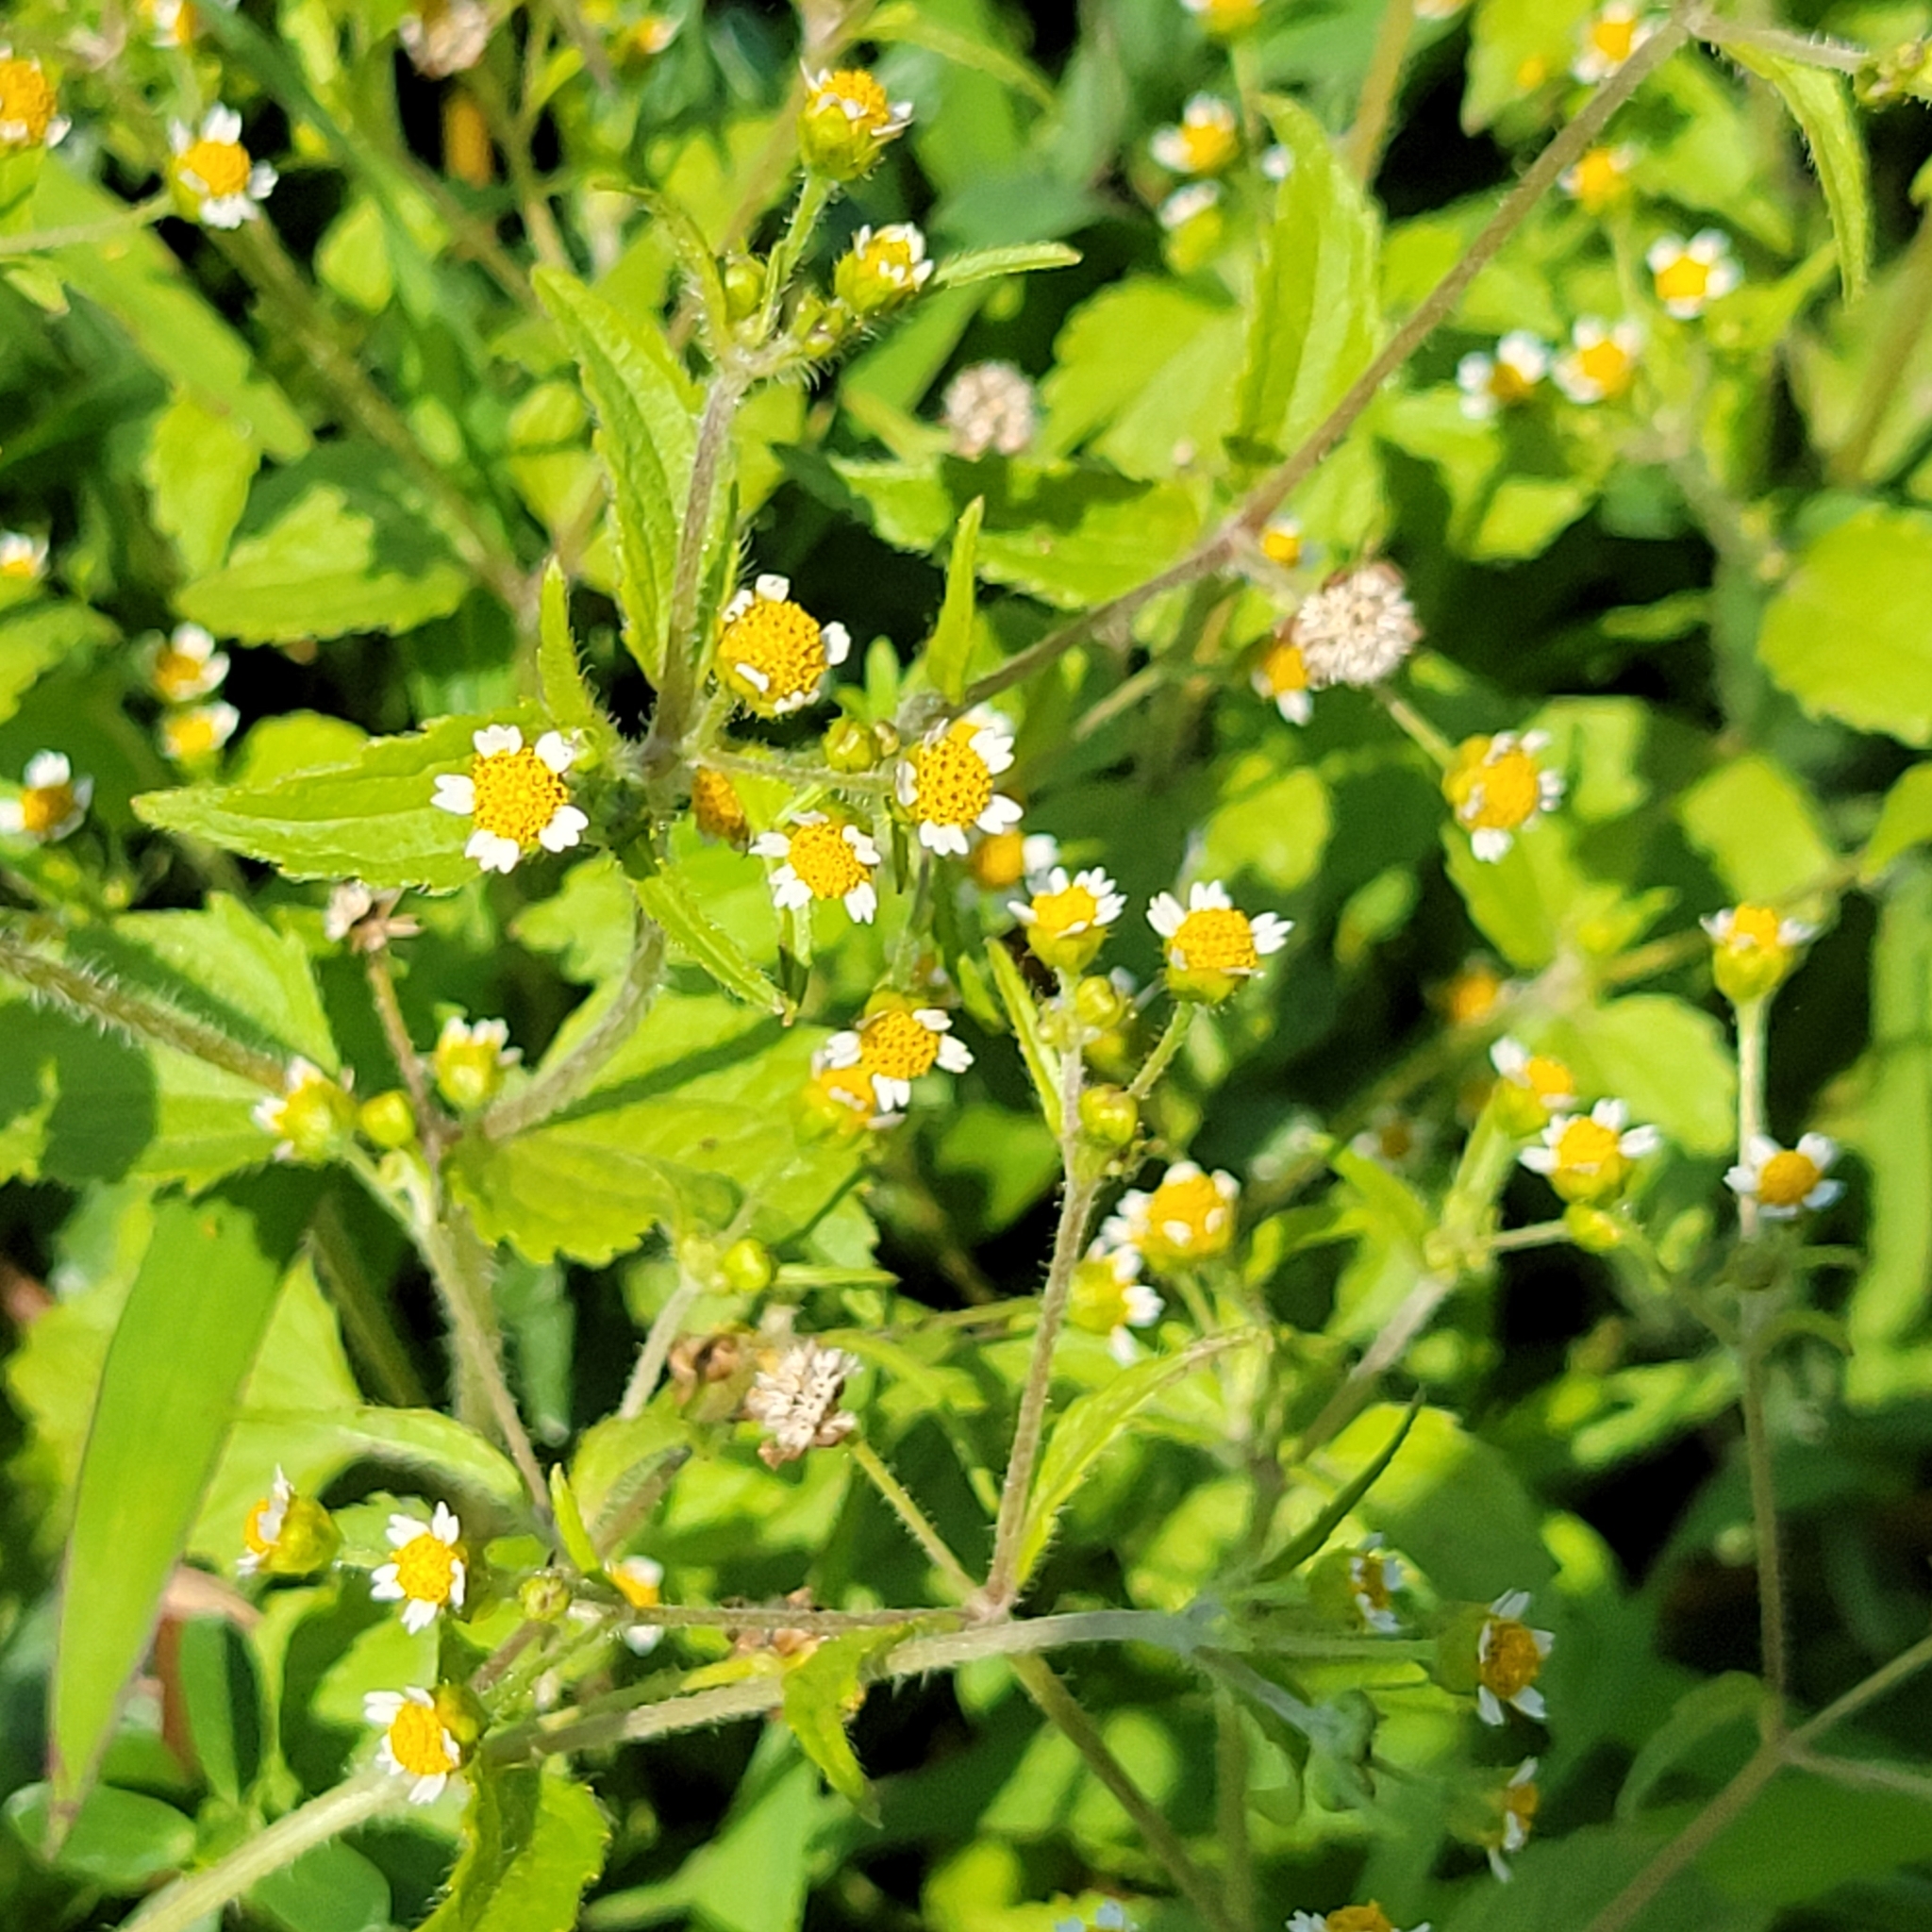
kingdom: Plantae
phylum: Tracheophyta
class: Magnoliopsida
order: Asterales
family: Asteraceae
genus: Galinsoga
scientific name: Galinsoga quadriradiata
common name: Shaggy soldier
